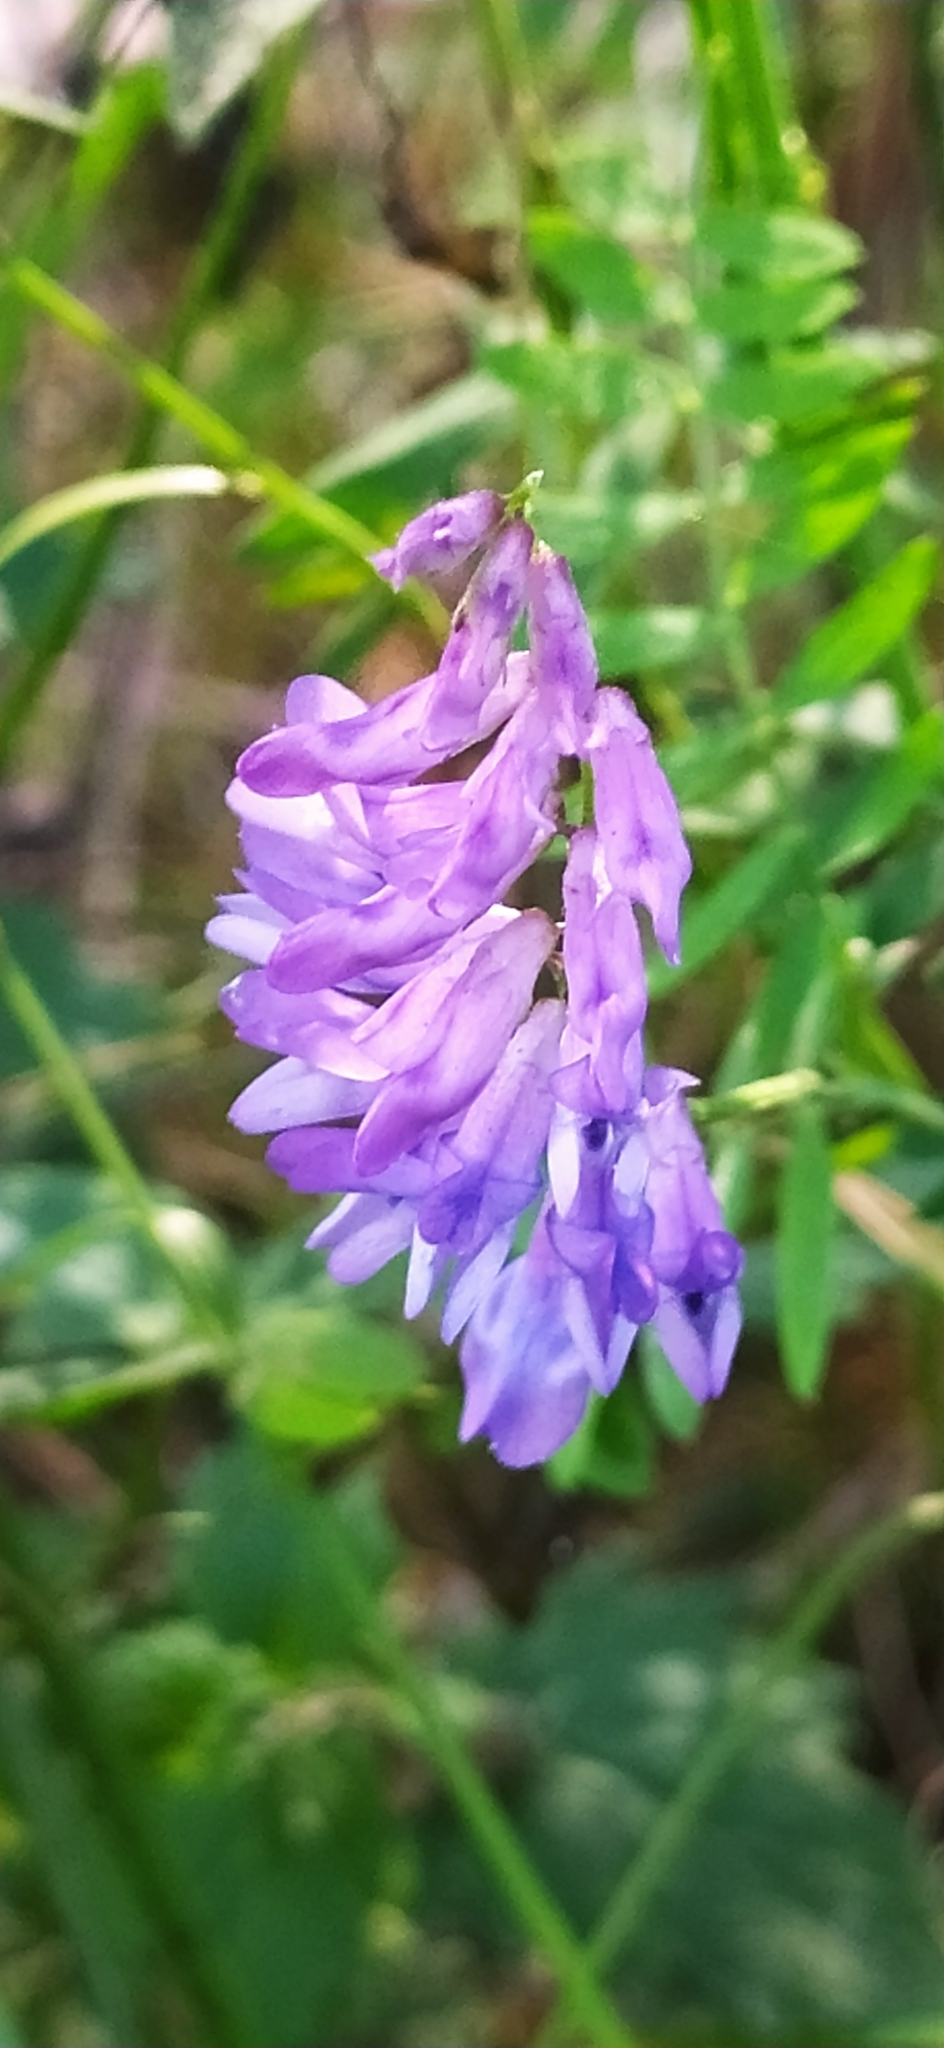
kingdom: Plantae
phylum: Tracheophyta
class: Magnoliopsida
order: Fabales
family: Fabaceae
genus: Vicia
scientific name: Vicia cracca
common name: Bird vetch
